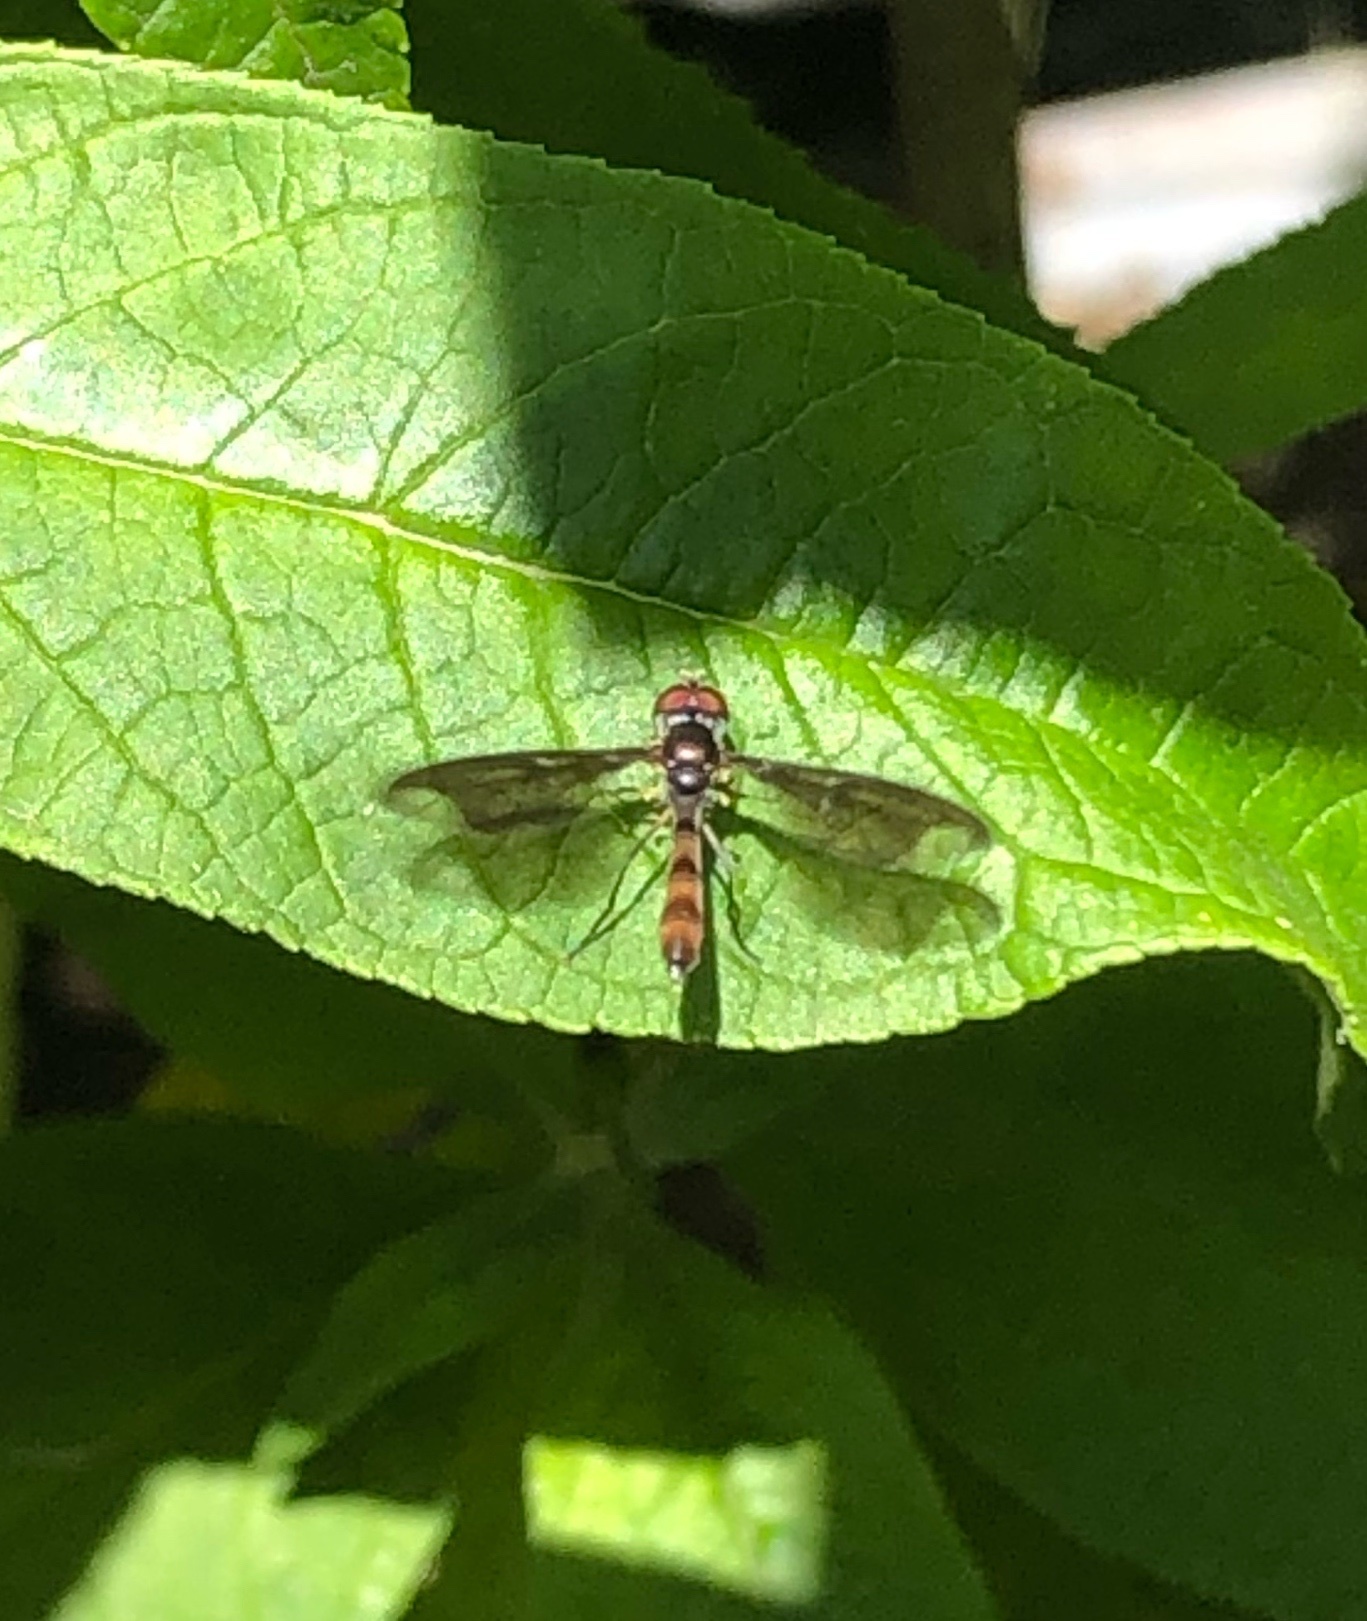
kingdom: Animalia
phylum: Arthropoda
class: Insecta
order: Diptera
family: Syrphidae
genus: Ocyptamus
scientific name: Ocyptamus fuscipennis
